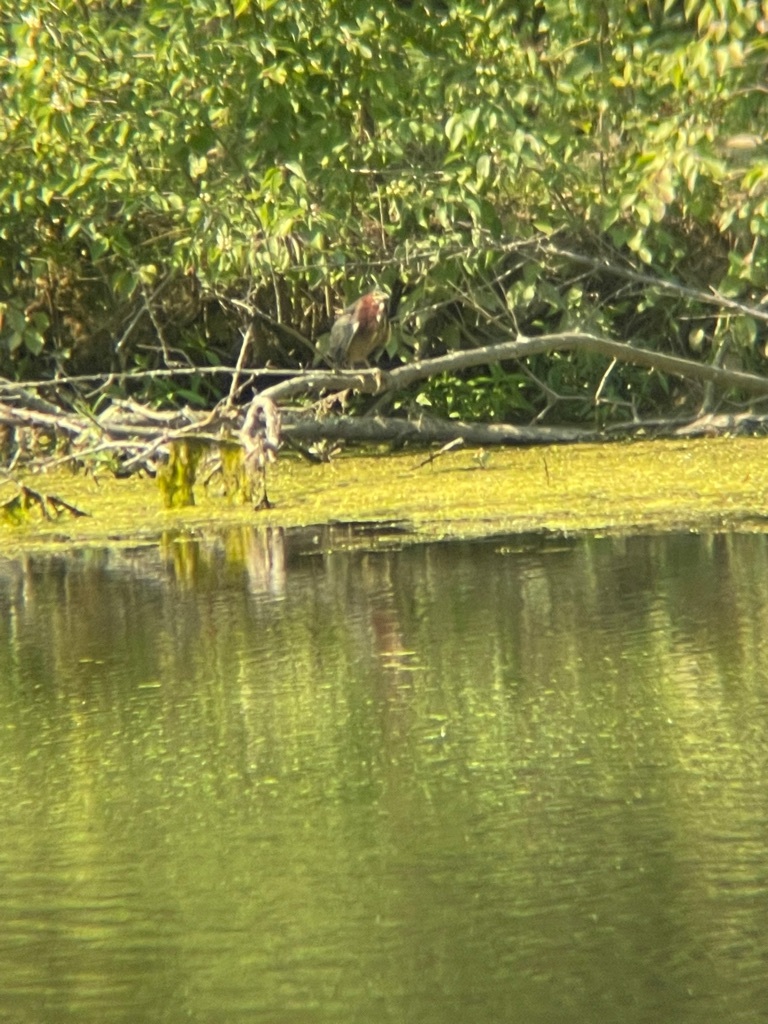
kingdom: Animalia
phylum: Chordata
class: Aves
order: Pelecaniformes
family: Ardeidae
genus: Butorides
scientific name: Butorides virescens
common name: Green heron
